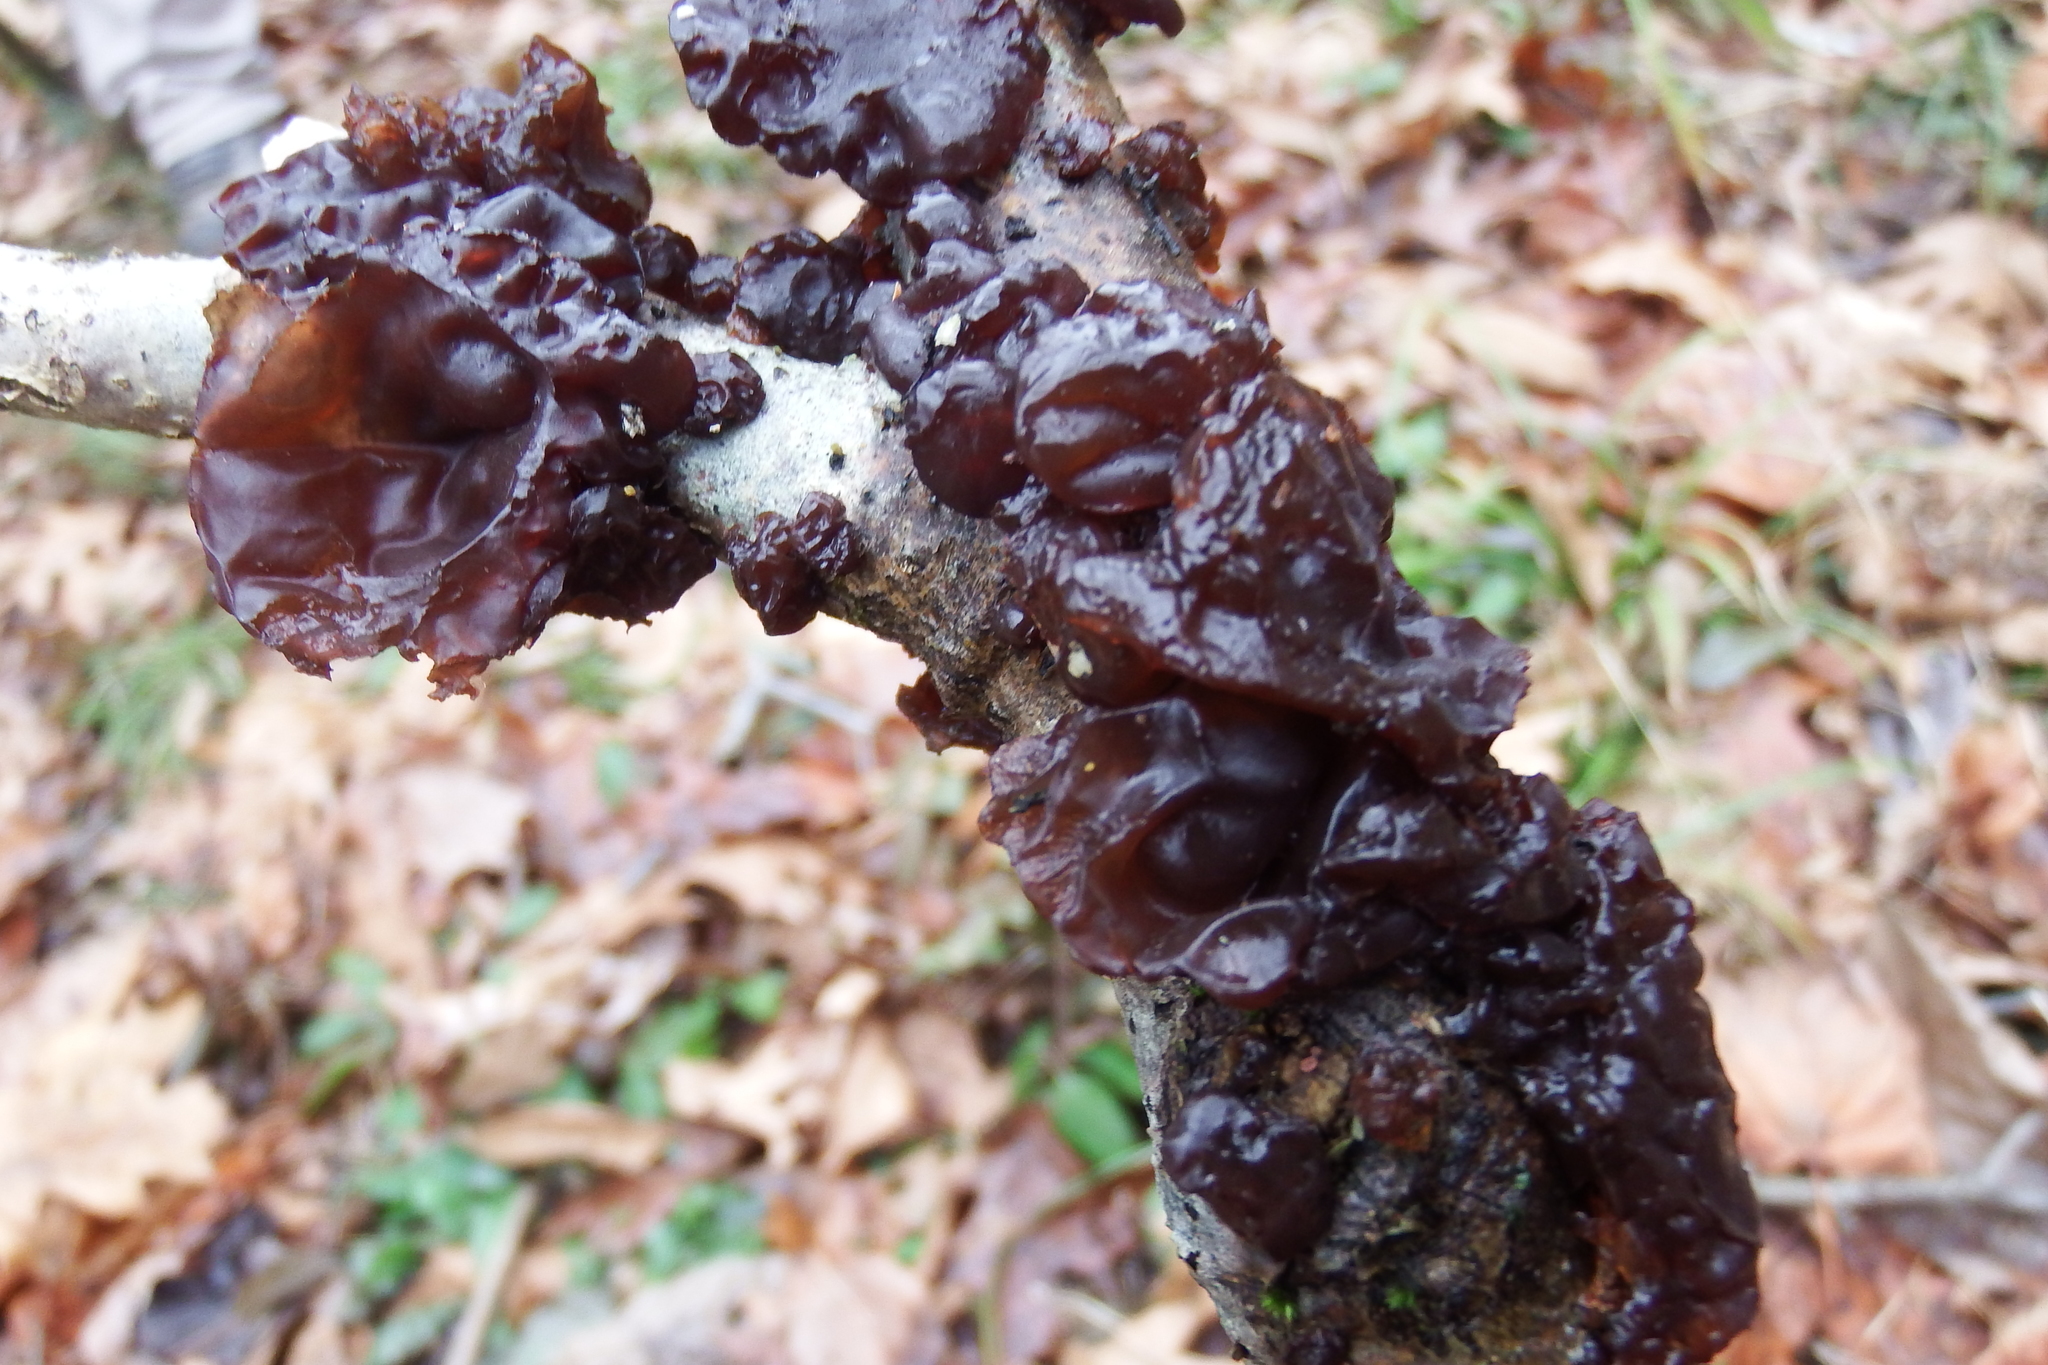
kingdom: Fungi
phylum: Basidiomycota
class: Agaricomycetes
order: Auriculariales
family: Auriculariaceae
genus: Exidia
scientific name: Exidia
